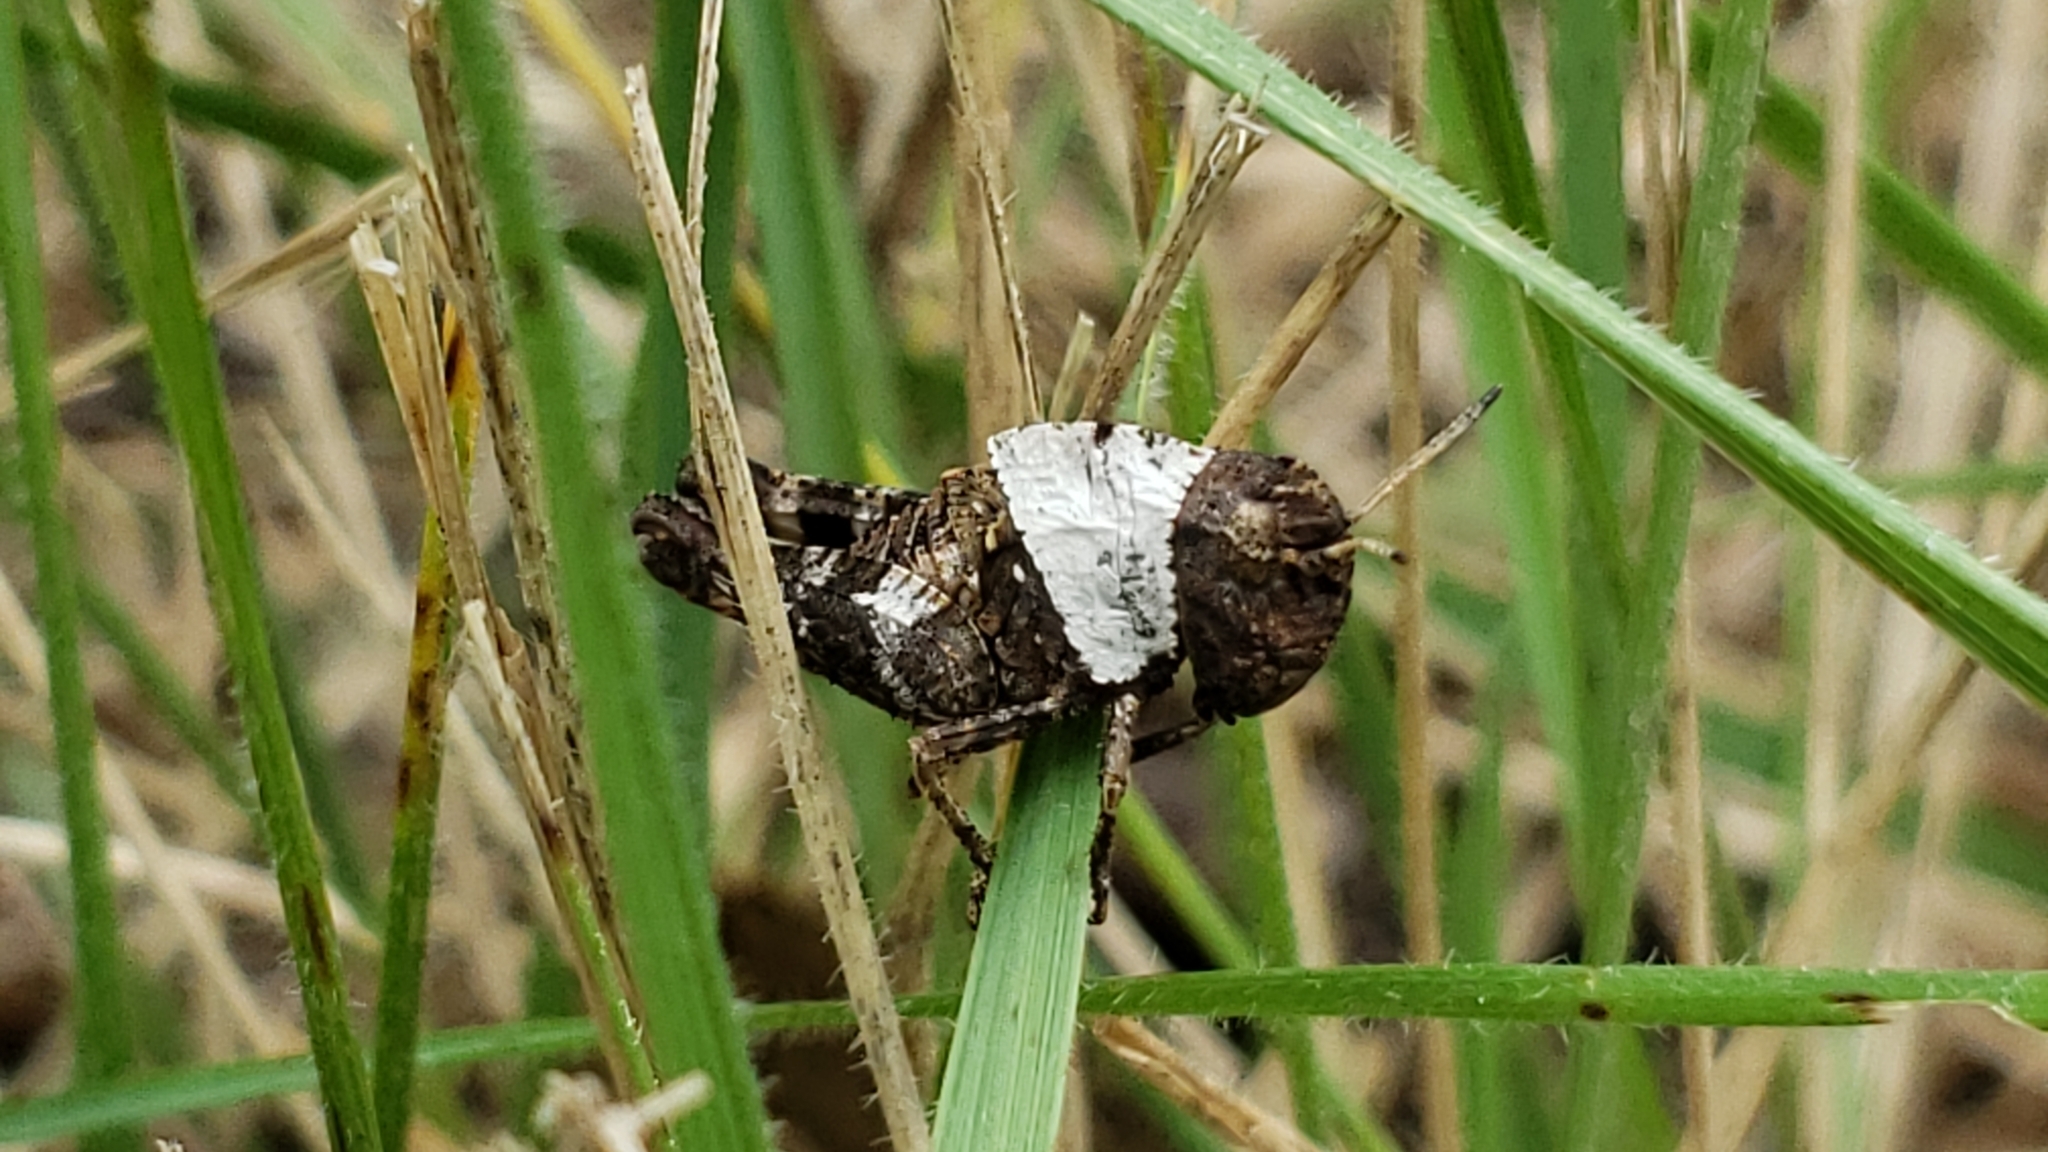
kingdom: Animalia
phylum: Arthropoda
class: Insecta
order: Orthoptera
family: Acrididae
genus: Arphia
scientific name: Arphia simplex
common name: Plains yellow-winged grasshopper
